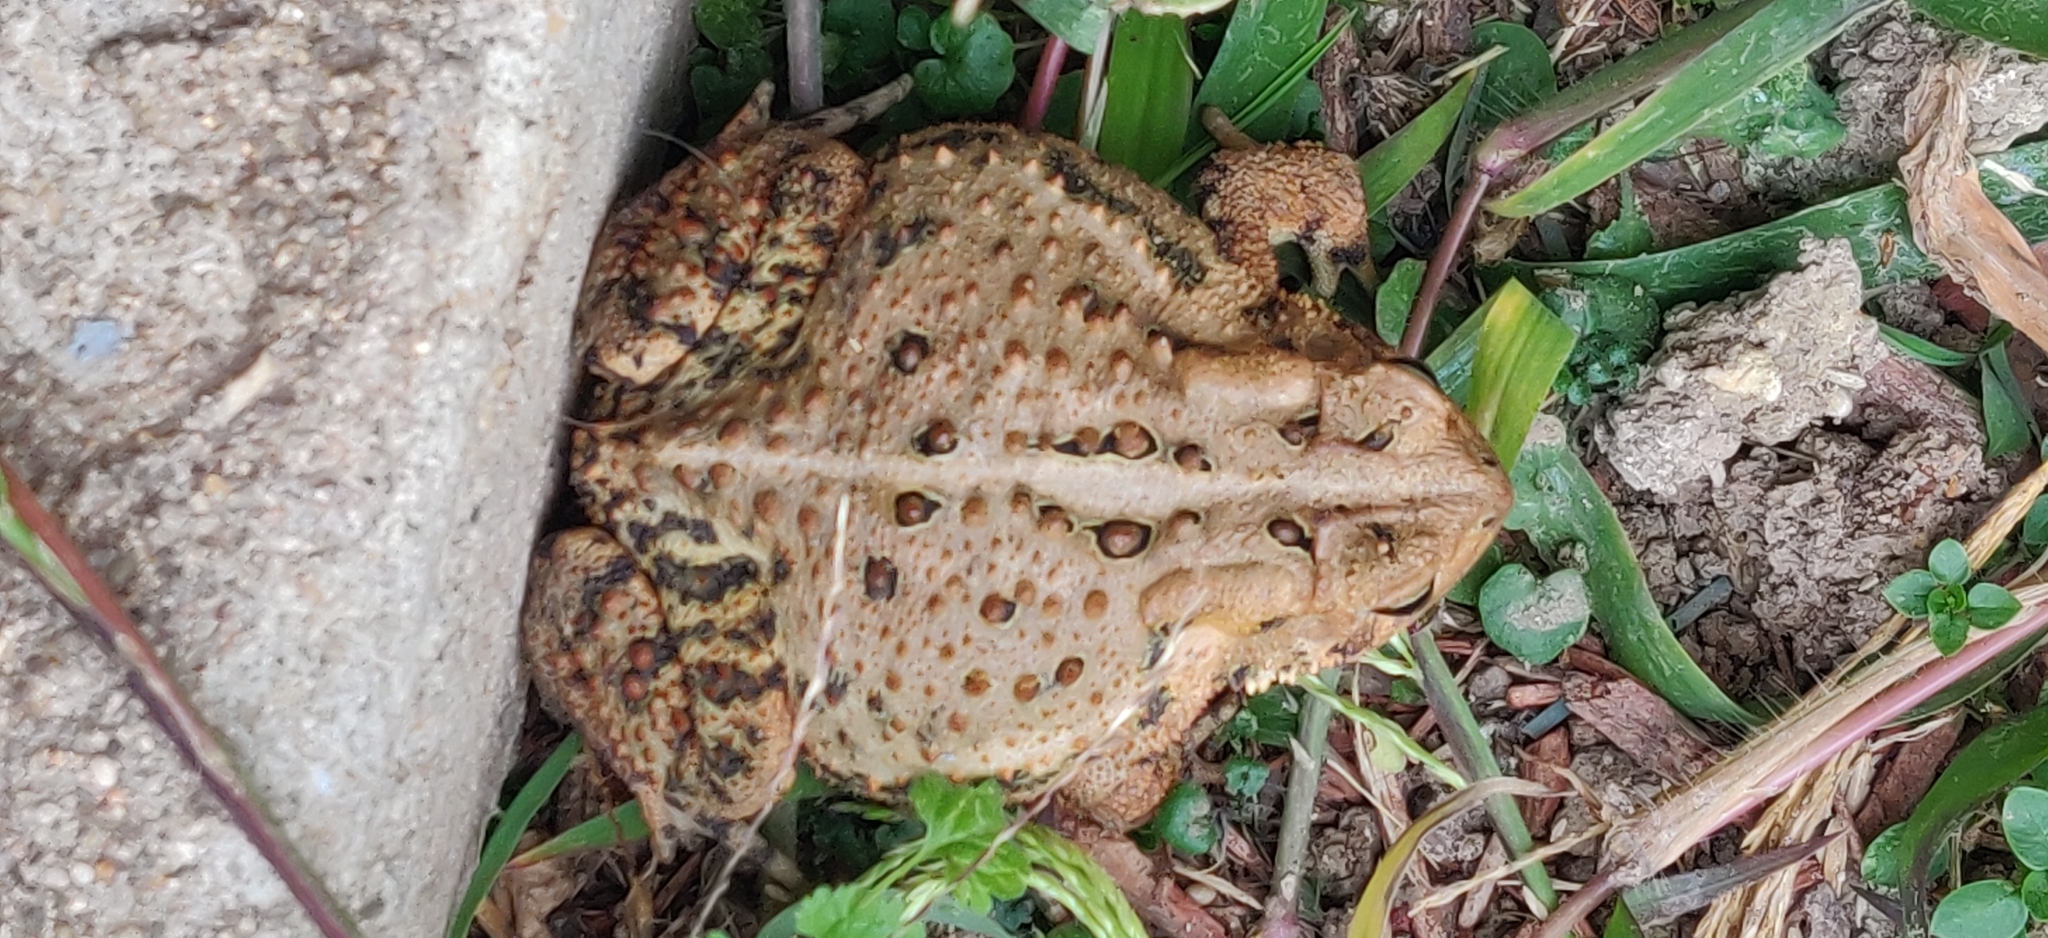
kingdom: Animalia
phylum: Chordata
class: Amphibia
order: Anura
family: Bufonidae
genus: Anaxyrus
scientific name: Anaxyrus americanus
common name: American toad
